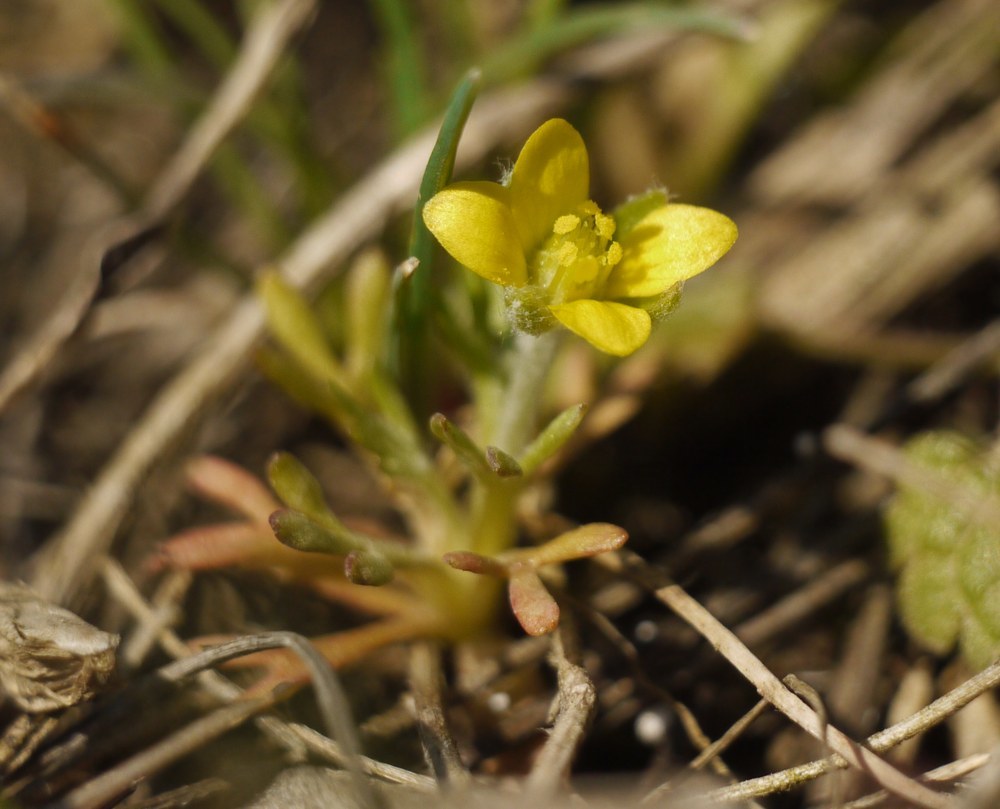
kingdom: Plantae
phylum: Tracheophyta
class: Magnoliopsida
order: Ranunculales
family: Ranunculaceae
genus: Ceratocephala
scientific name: Ceratocephala falcata
